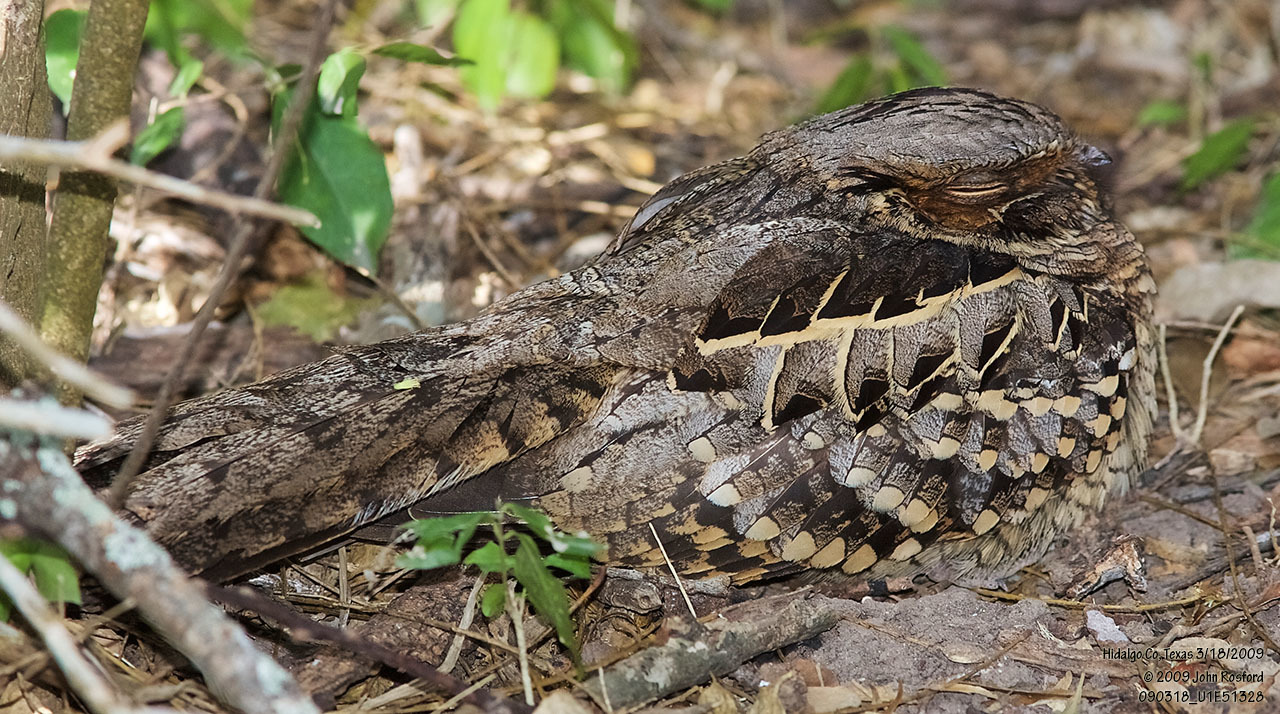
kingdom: Animalia
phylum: Chordata
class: Aves
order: Caprimulgiformes
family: Caprimulgidae
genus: Nyctidromus
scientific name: Nyctidromus albicollis
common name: Pauraque
